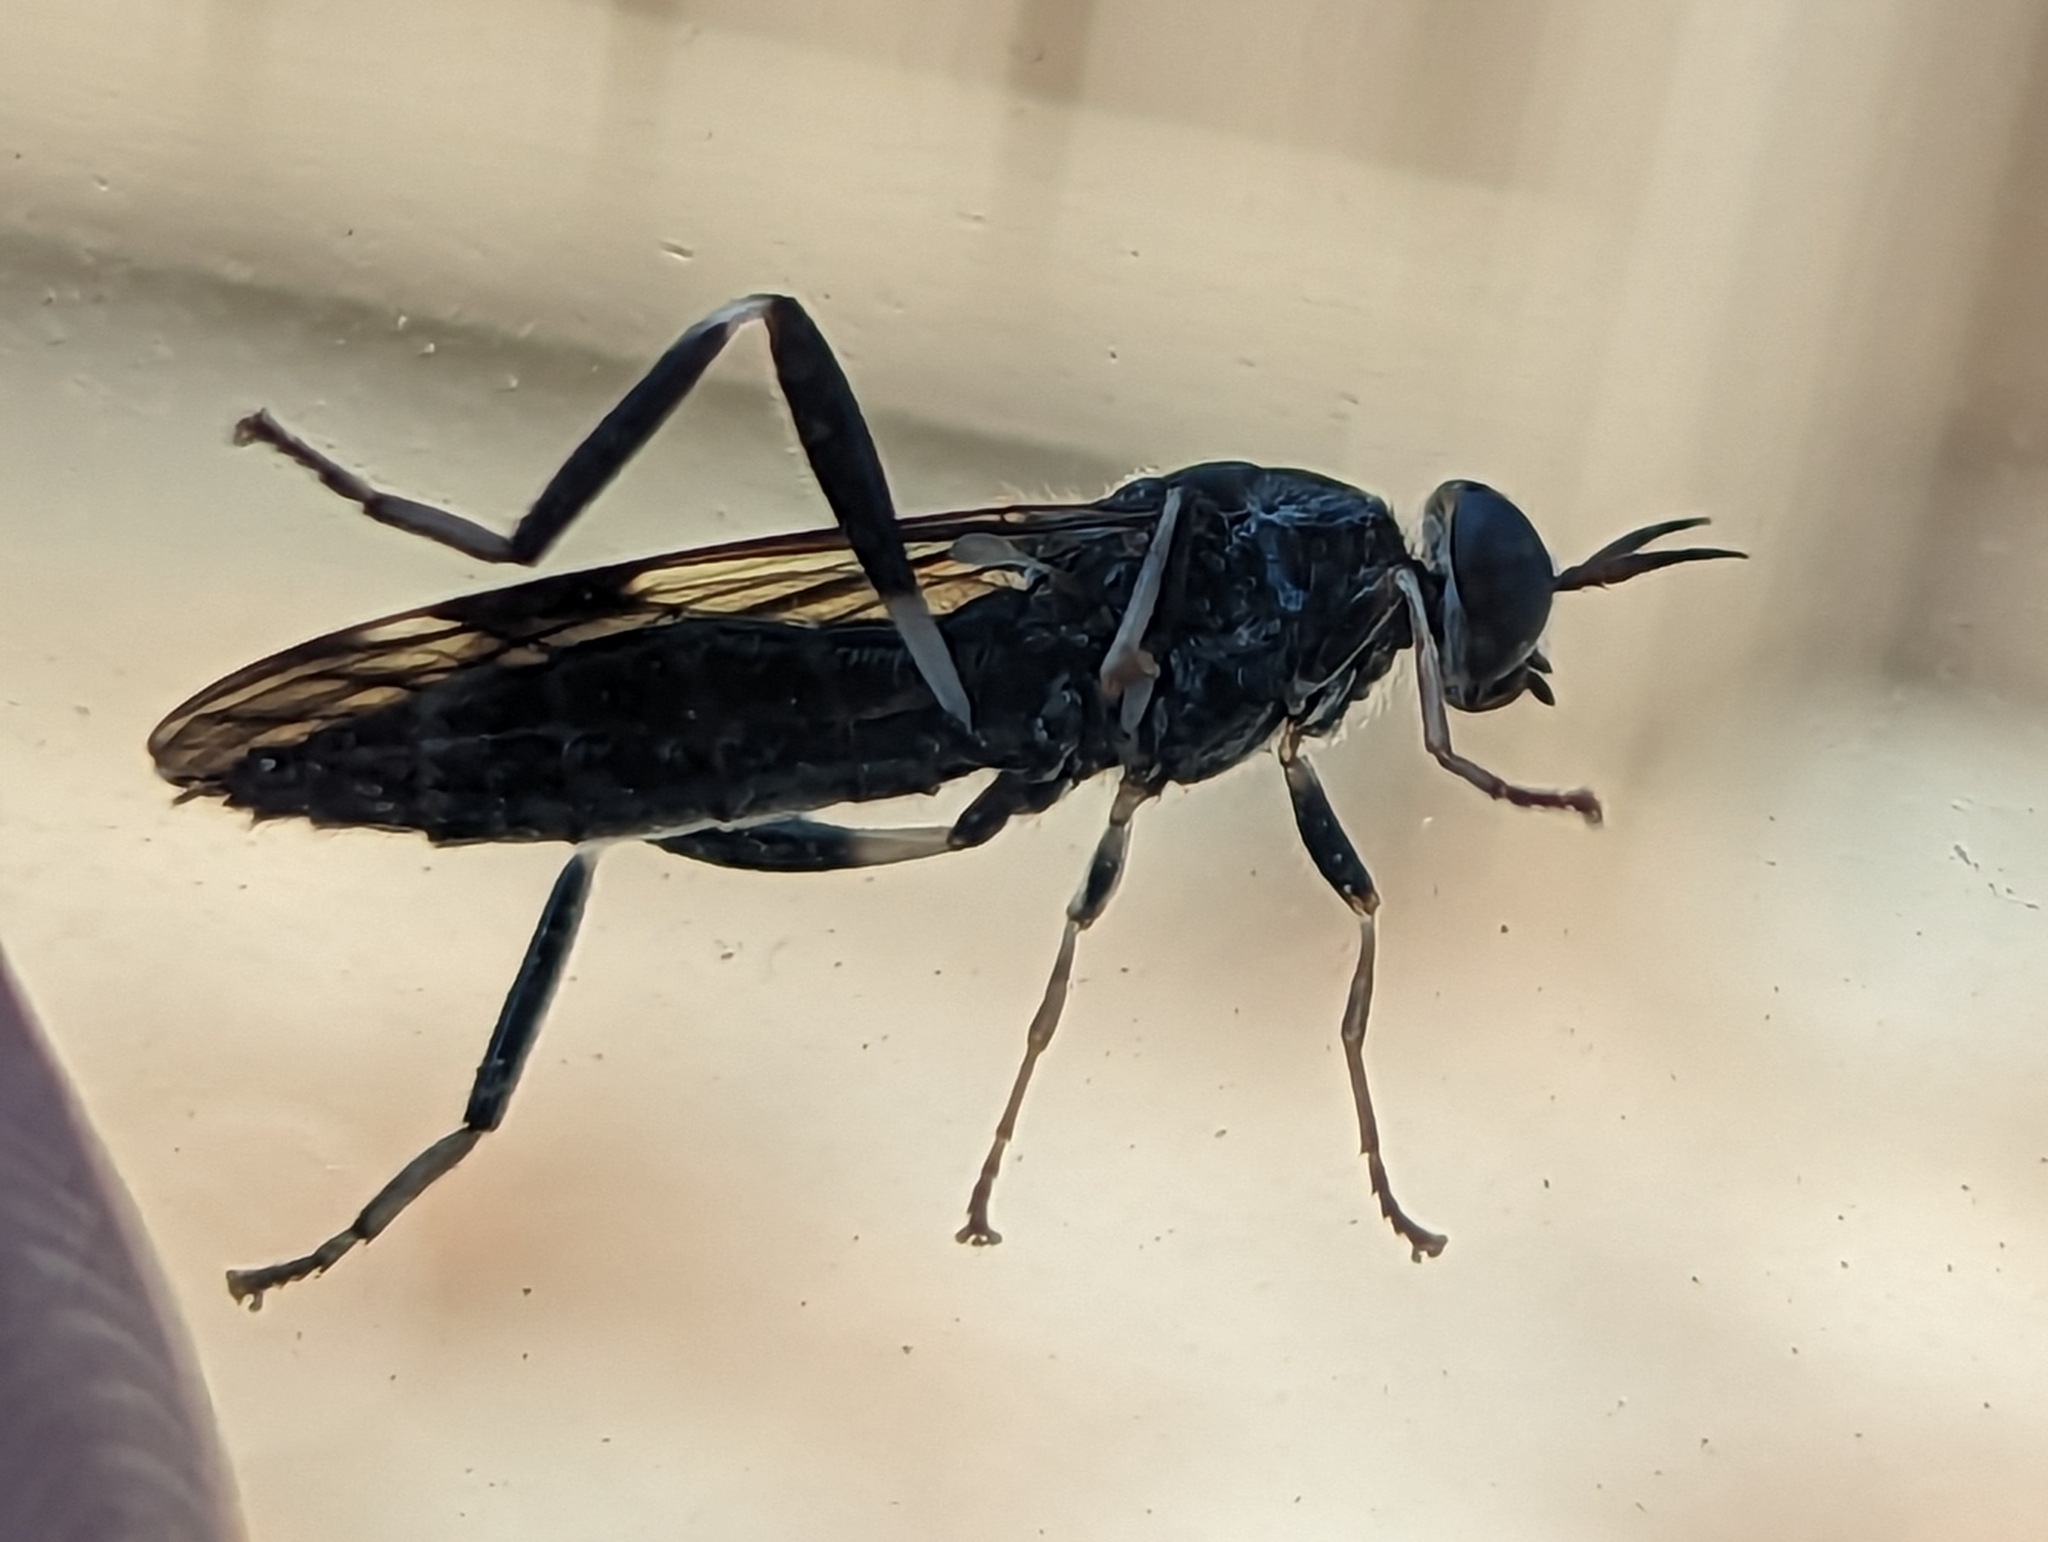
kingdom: Animalia
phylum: Arthropoda
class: Insecta
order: Diptera
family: Stratiomyidae
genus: Exaireta
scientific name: Exaireta spinigera
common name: Blue soldier fly
